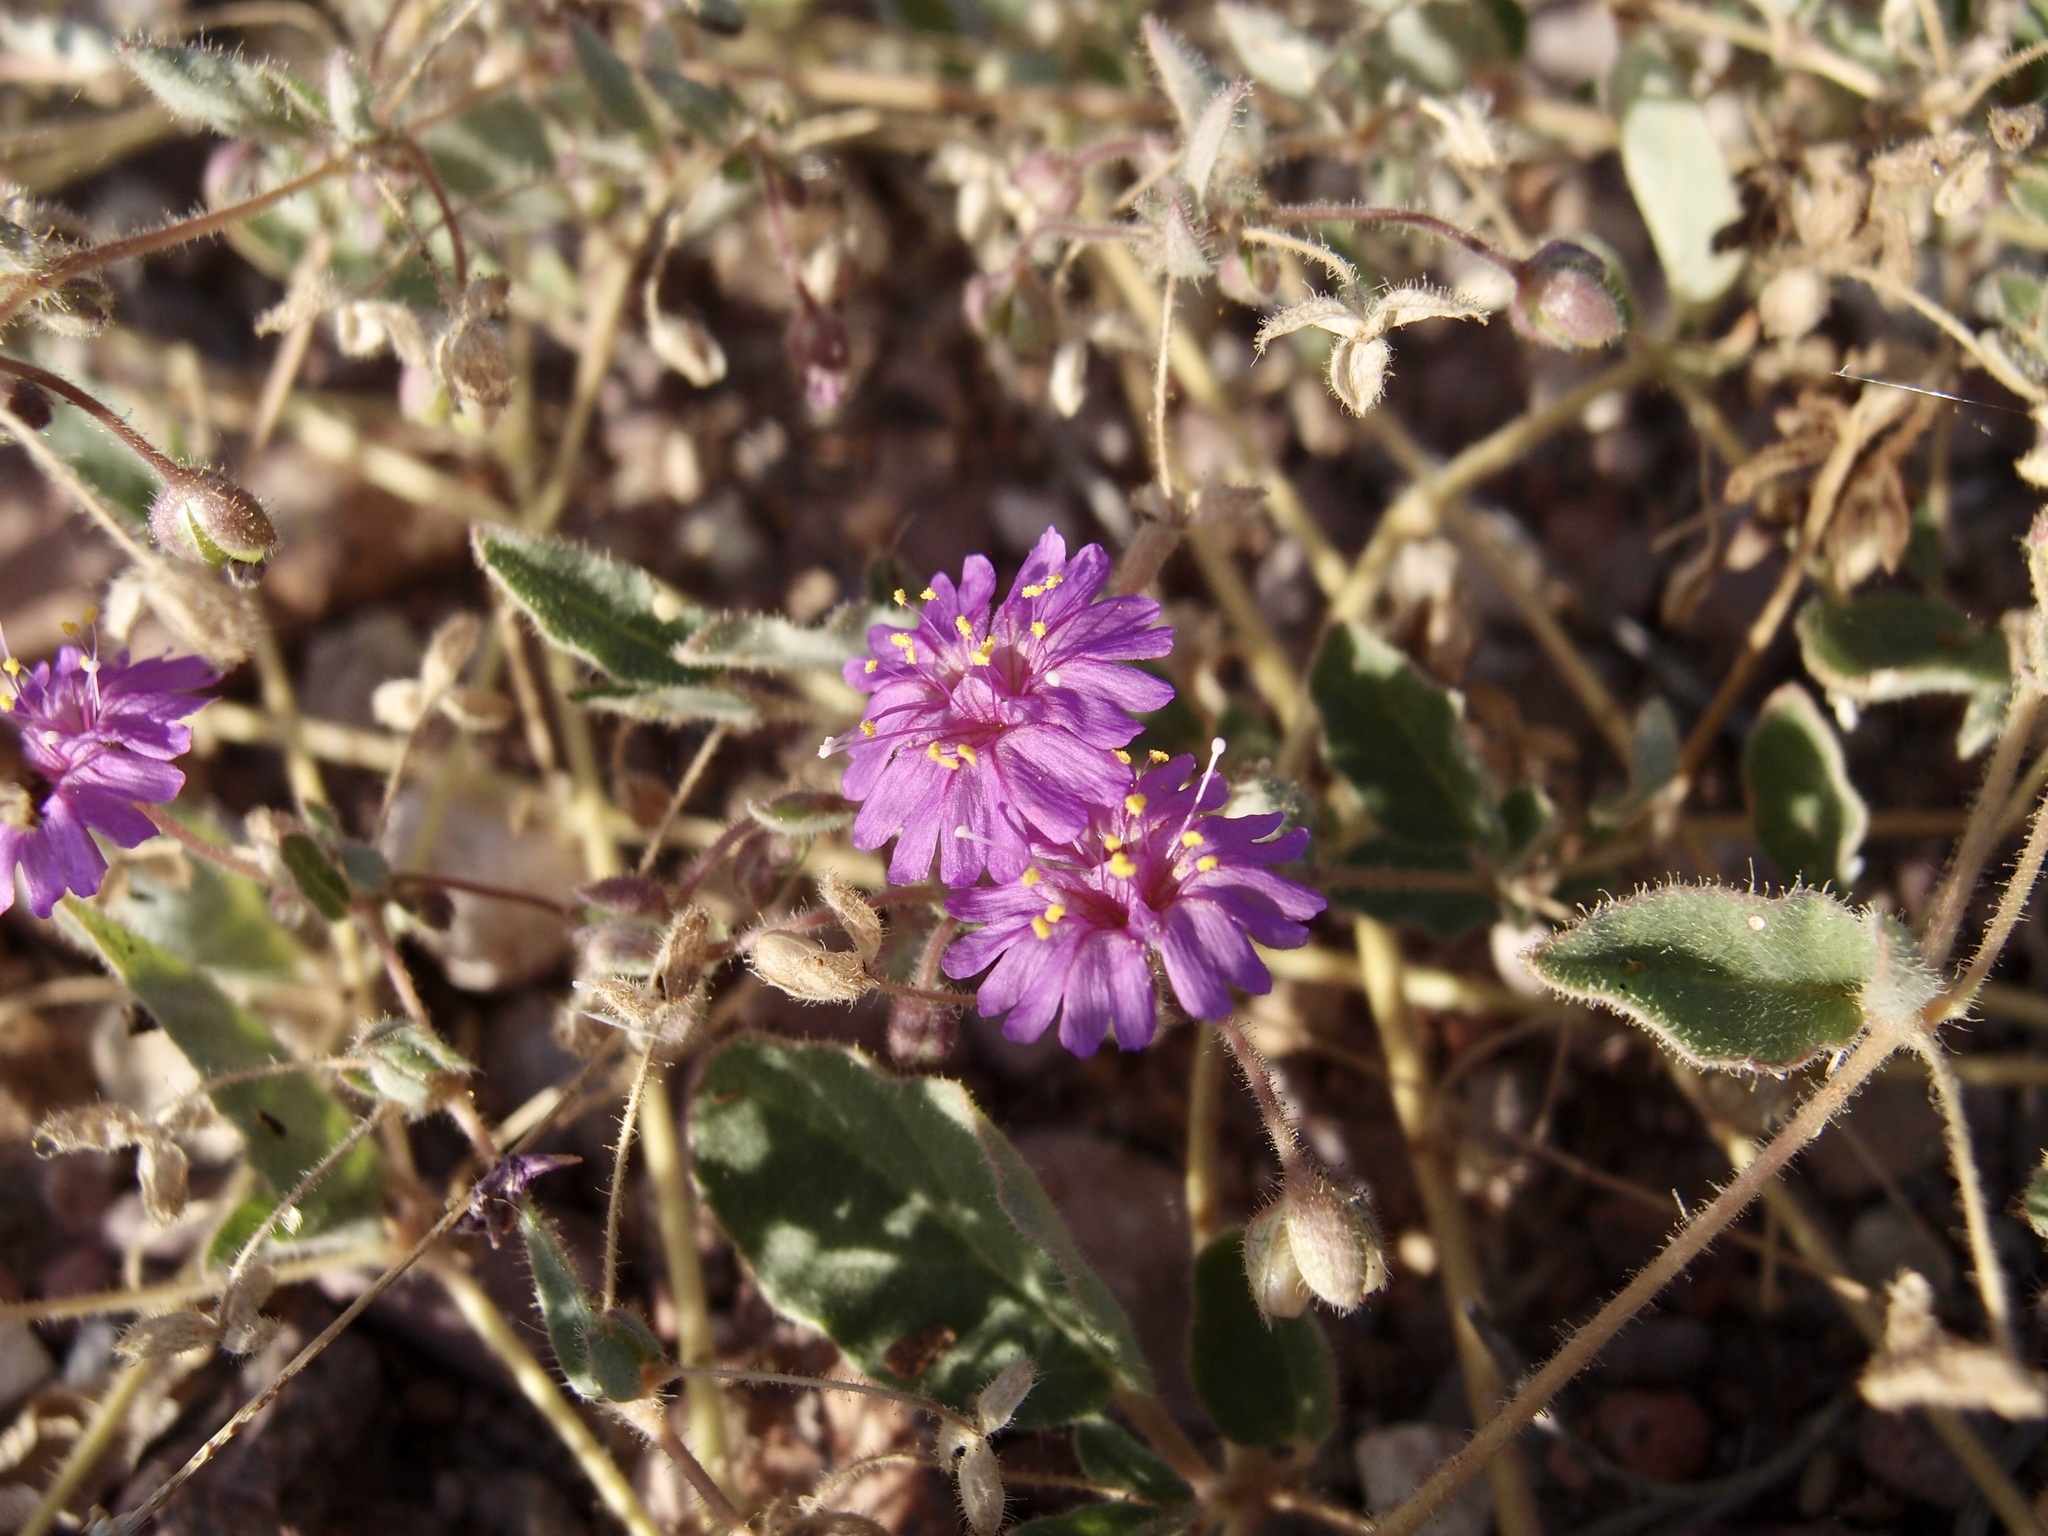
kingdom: Plantae
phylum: Tracheophyta
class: Magnoliopsida
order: Caryophyllales
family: Nyctaginaceae
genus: Allionia
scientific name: Allionia incarnata
